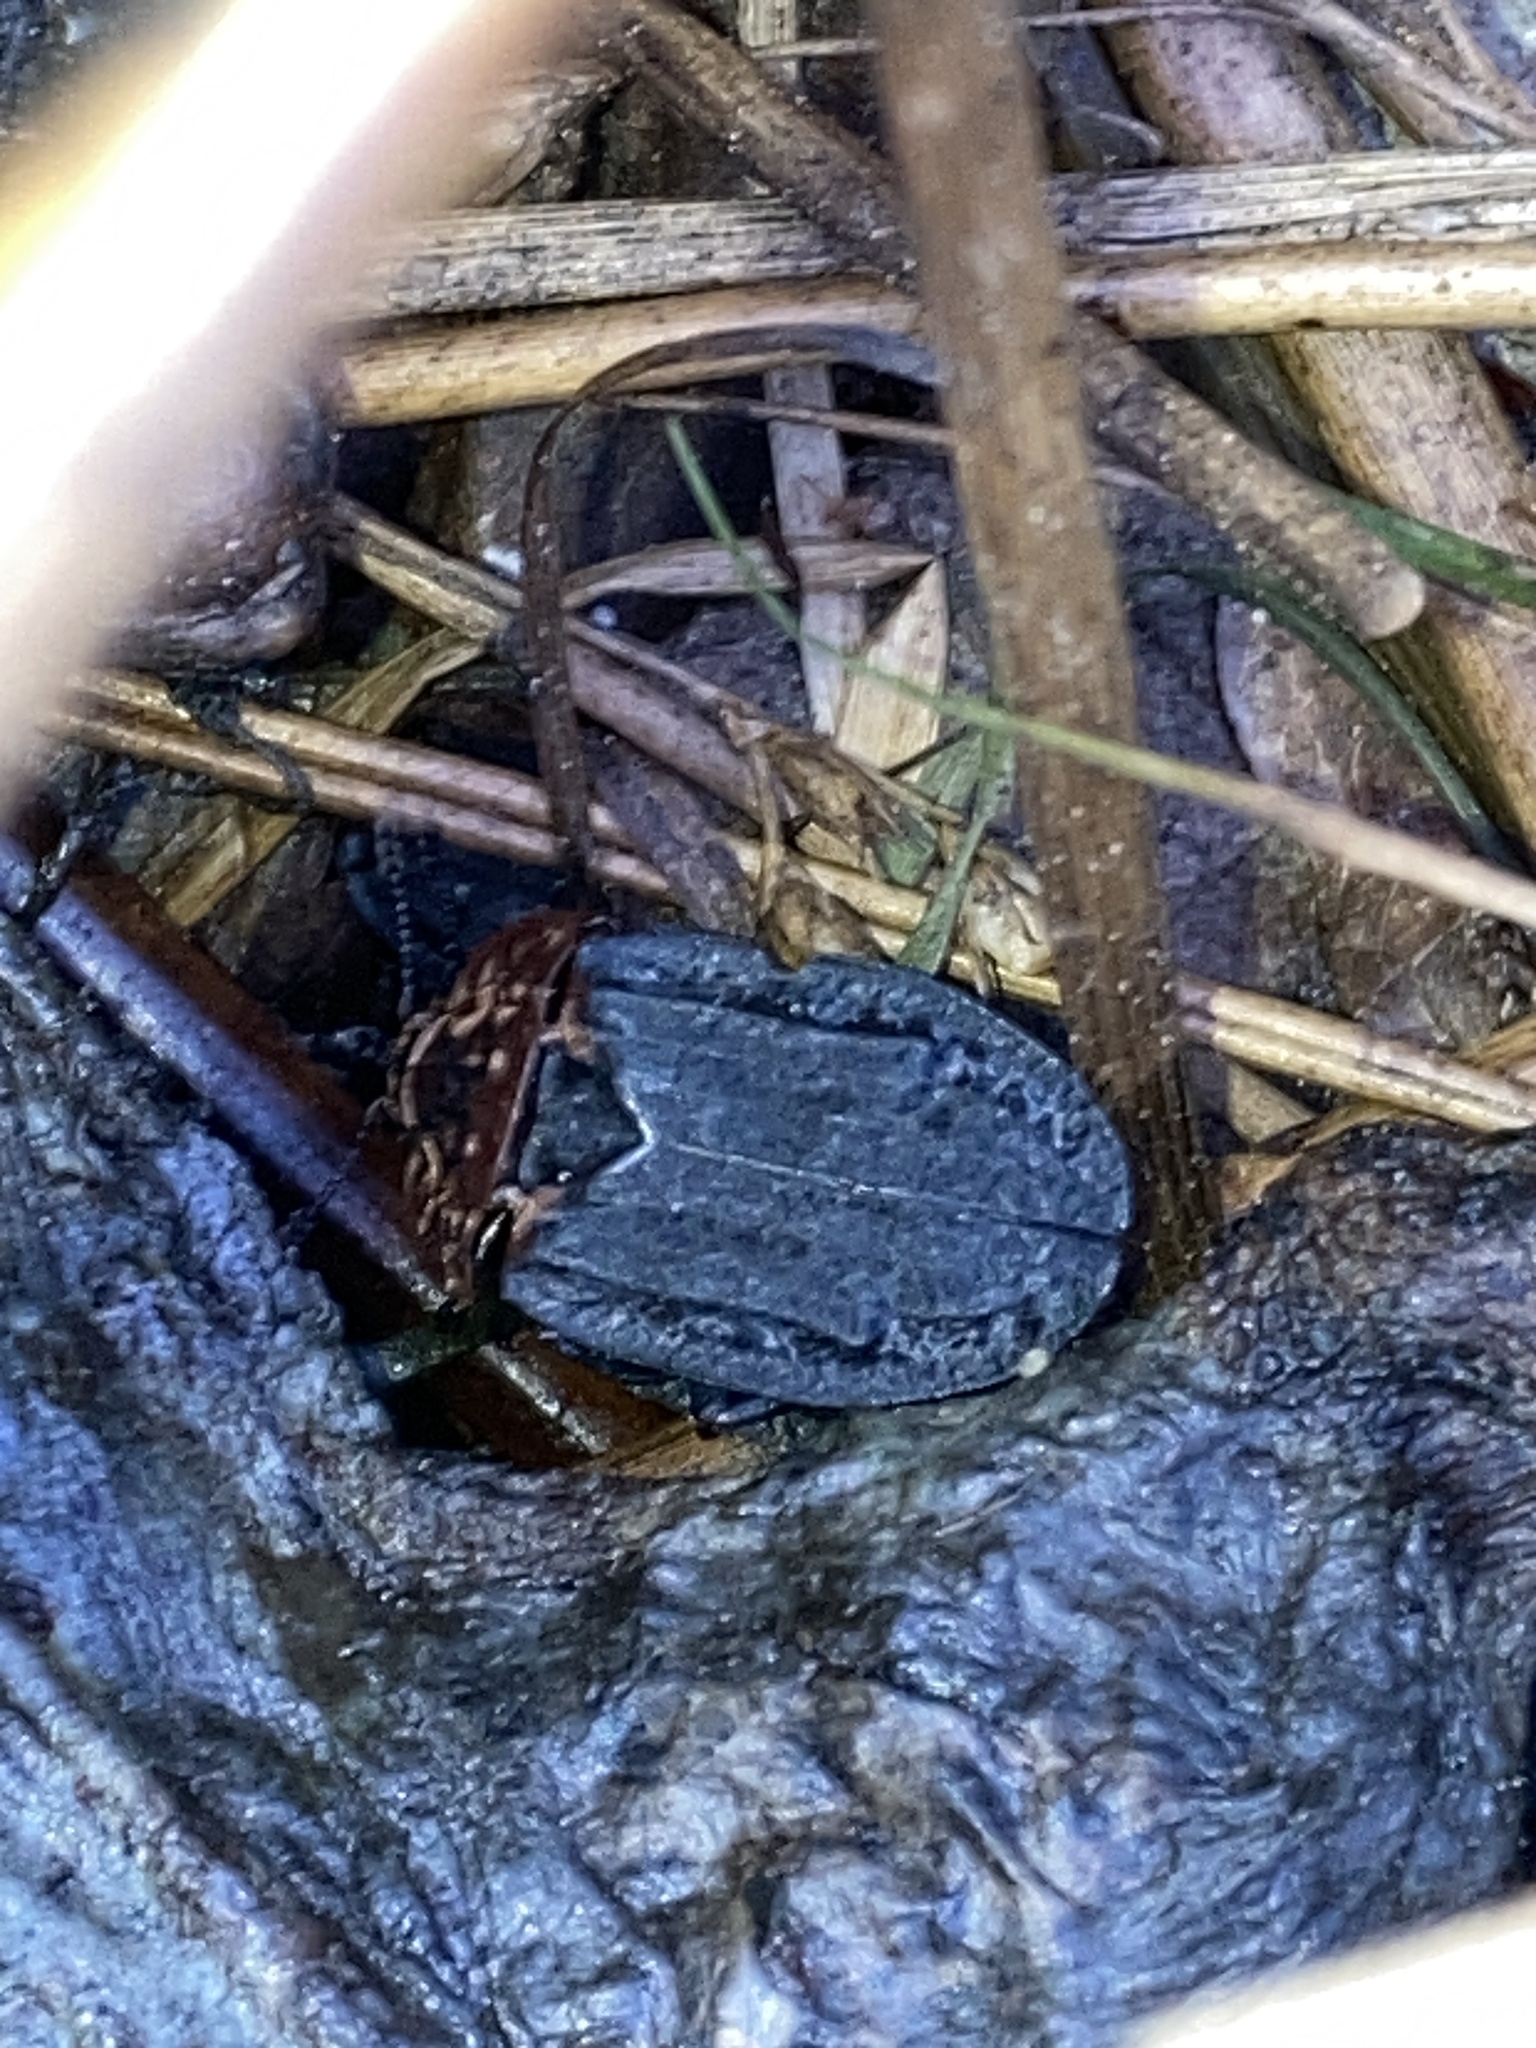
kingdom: Animalia
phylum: Arthropoda
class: Insecta
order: Coleoptera
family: Staphylinidae
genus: Oiceoptoma
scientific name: Oiceoptoma thoracicum
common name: Red-breasted carrion beetle
